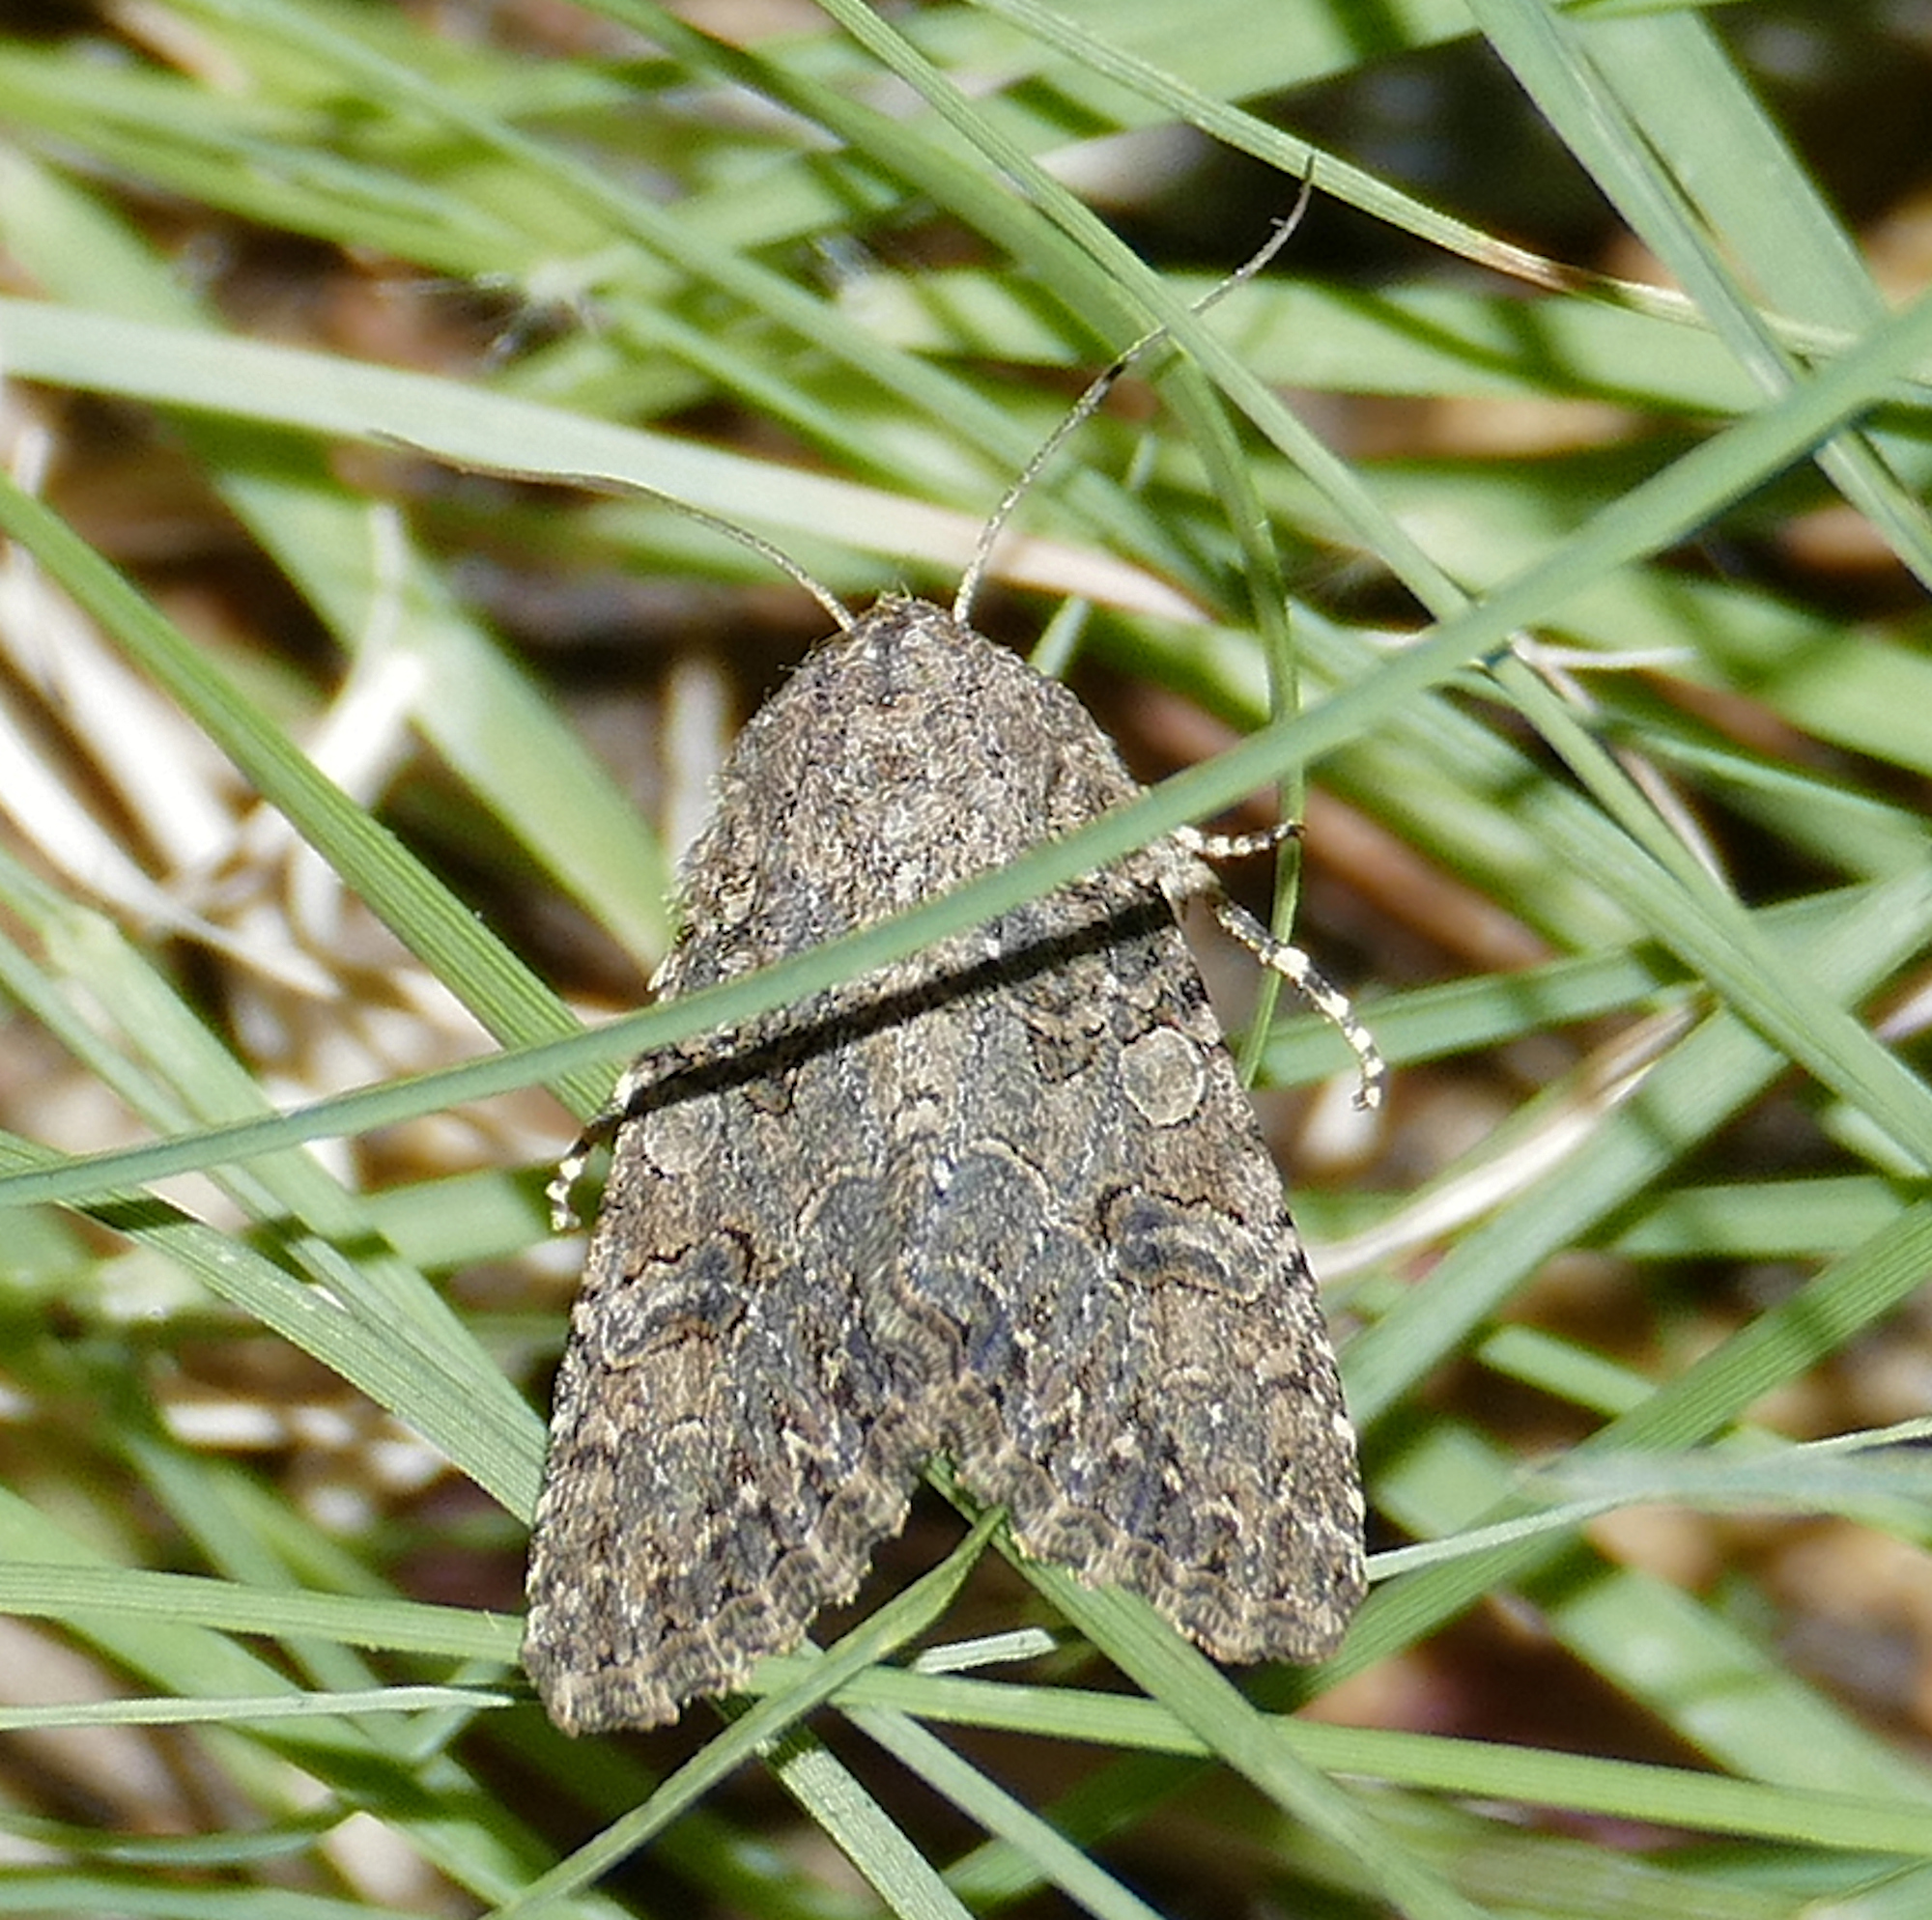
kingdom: Animalia
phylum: Arthropoda
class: Insecta
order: Lepidoptera
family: Noctuidae
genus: Anarta
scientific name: Anarta trifolii
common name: Clover cutworm moth
